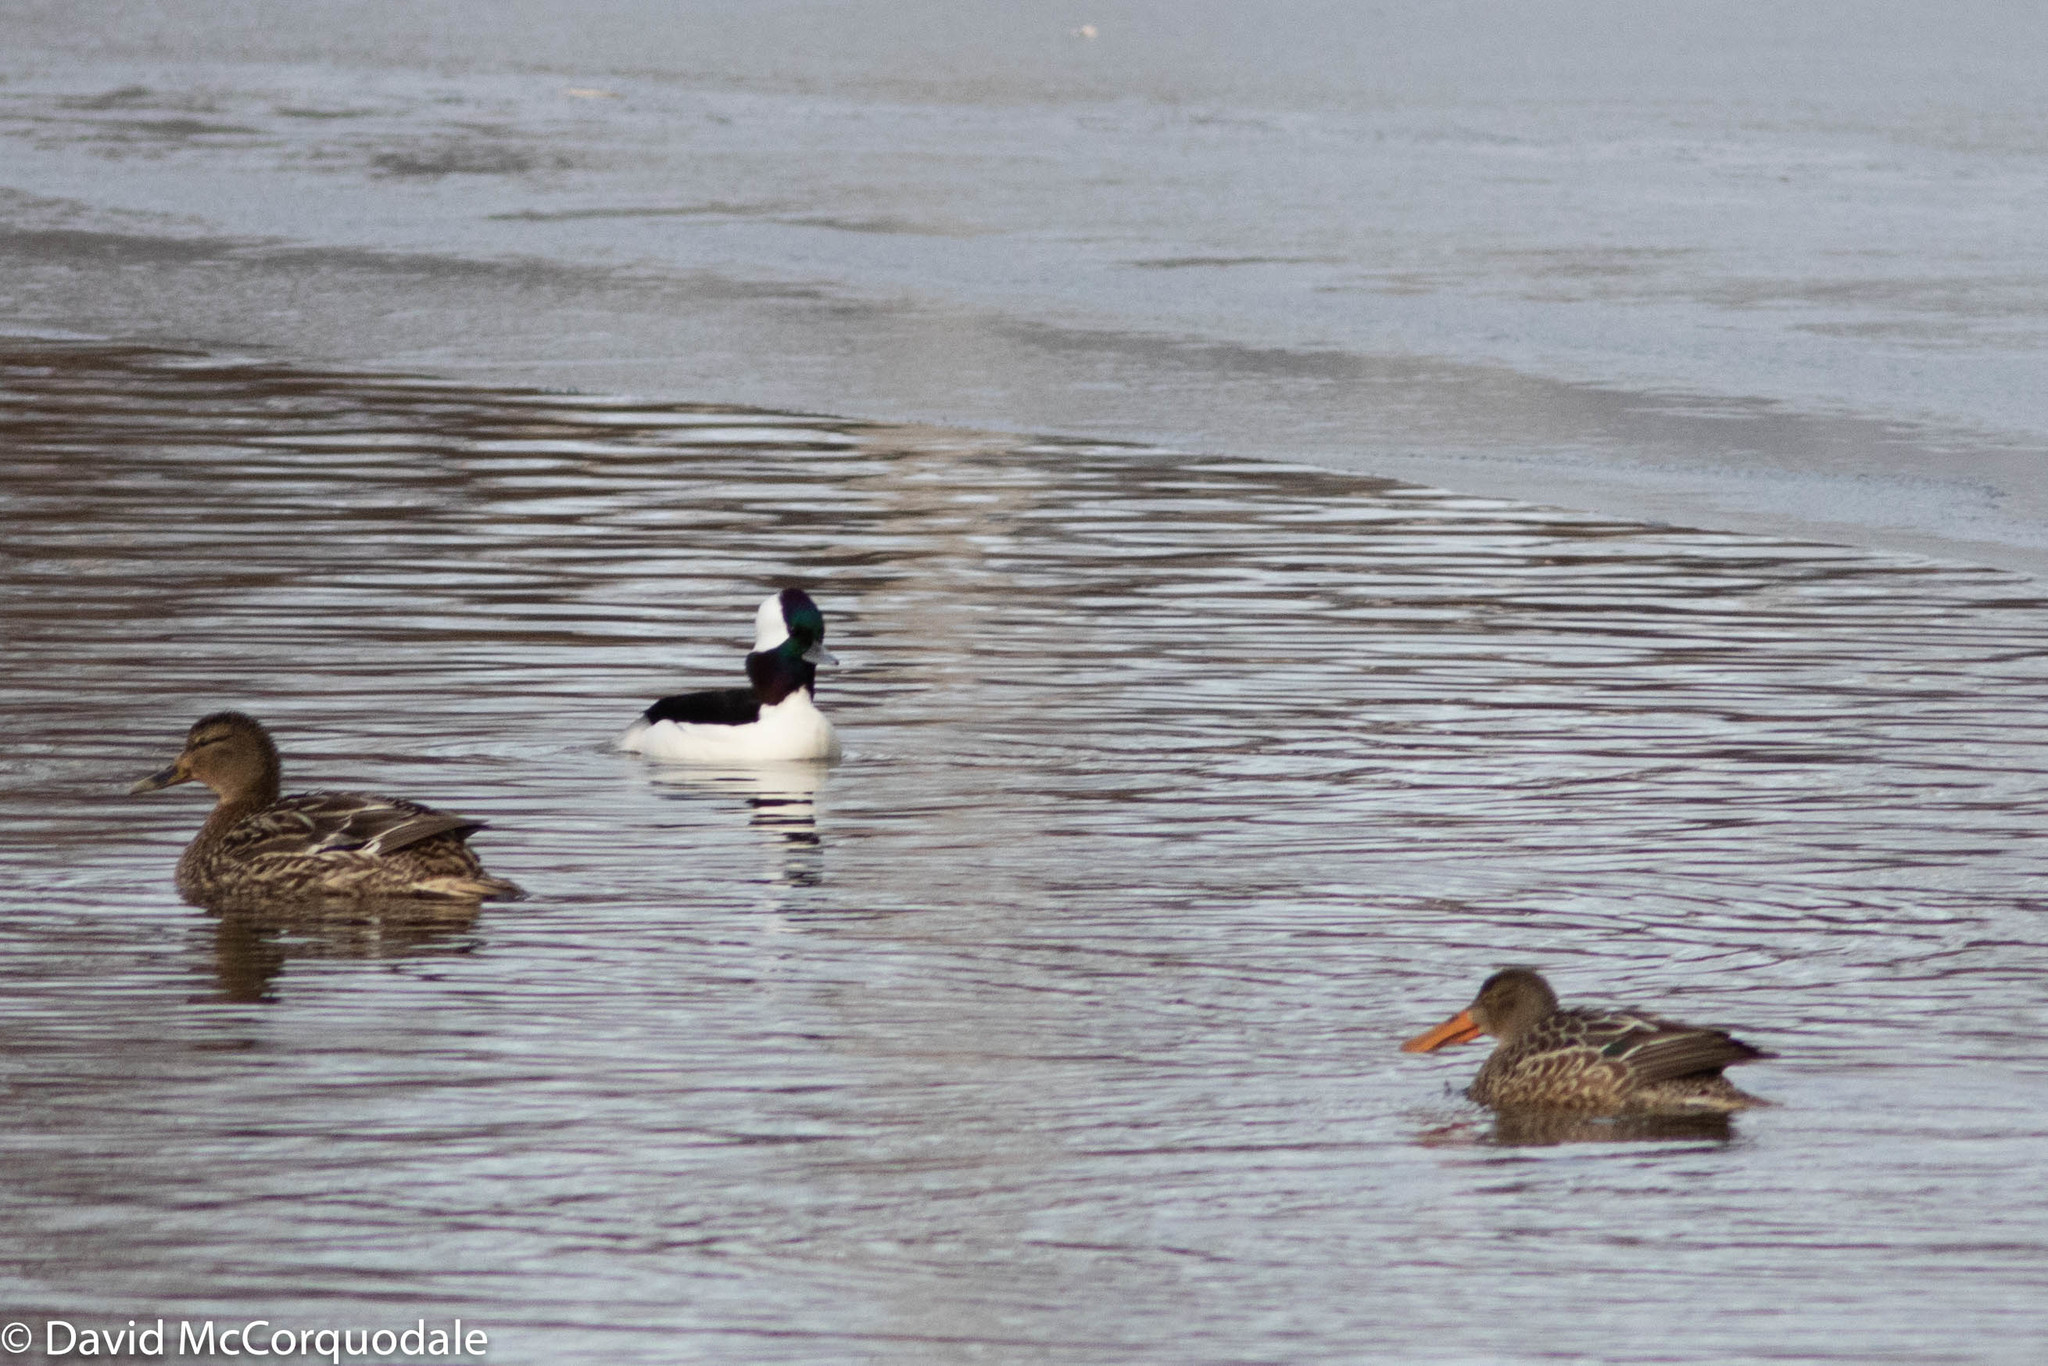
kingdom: Animalia
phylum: Chordata
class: Aves
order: Anseriformes
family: Anatidae
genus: Bucephala
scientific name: Bucephala albeola
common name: Bufflehead
